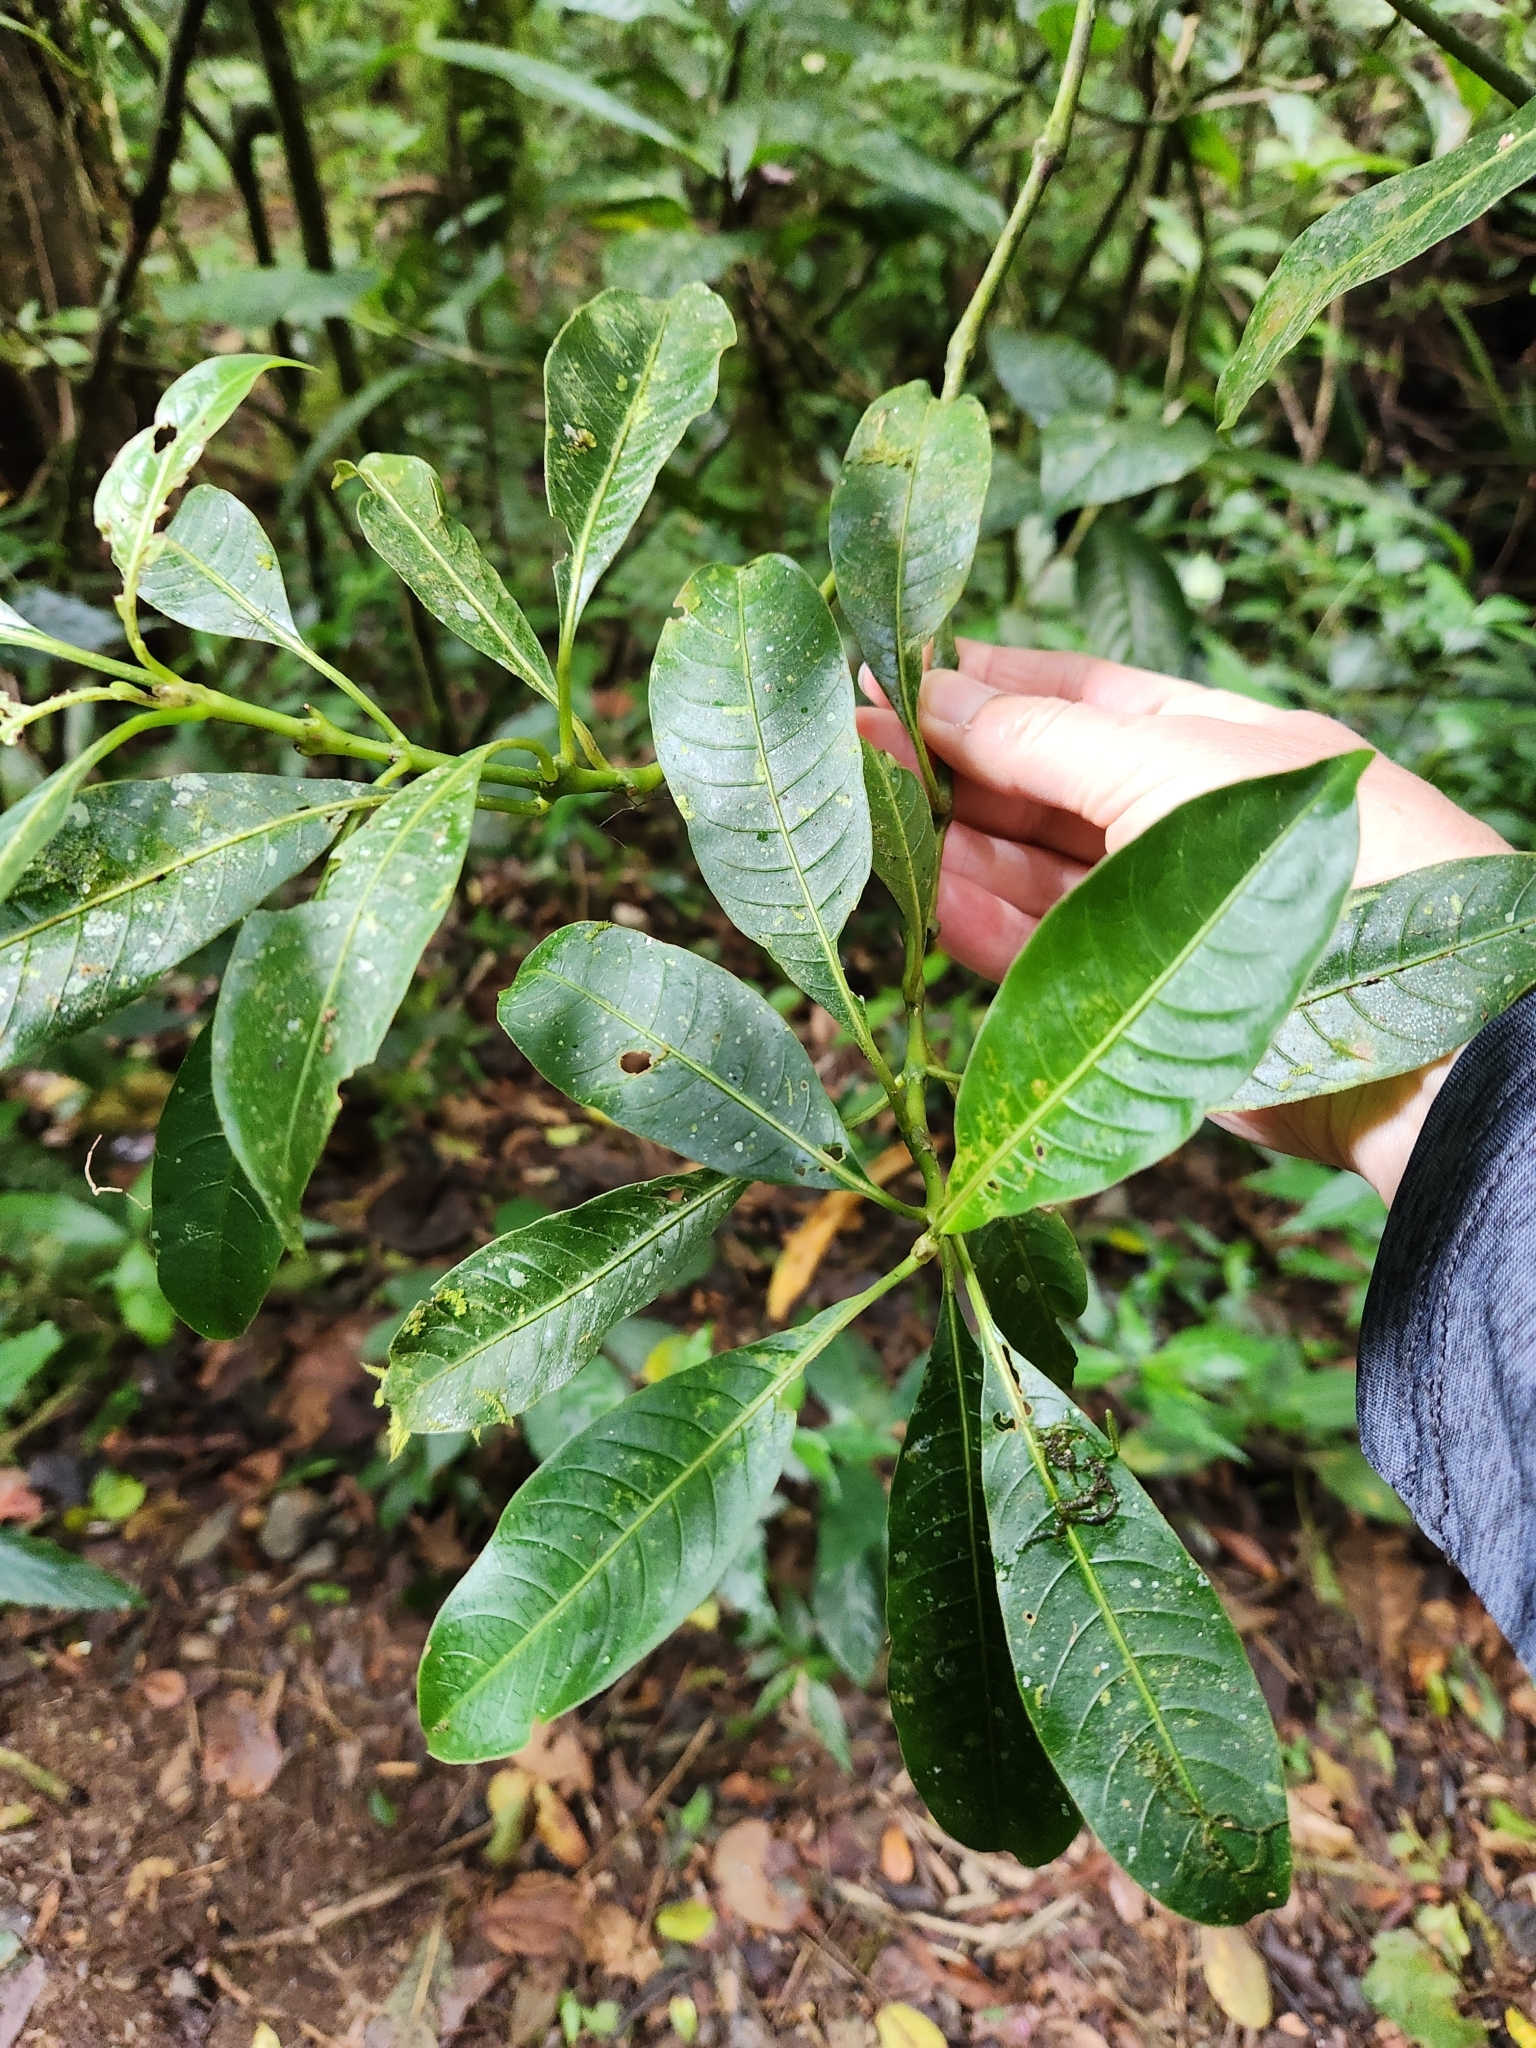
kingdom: Plantae
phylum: Tracheophyta
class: Magnoliopsida
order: Gentianales
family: Rubiaceae
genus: Palicourea
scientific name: Palicourea elata
